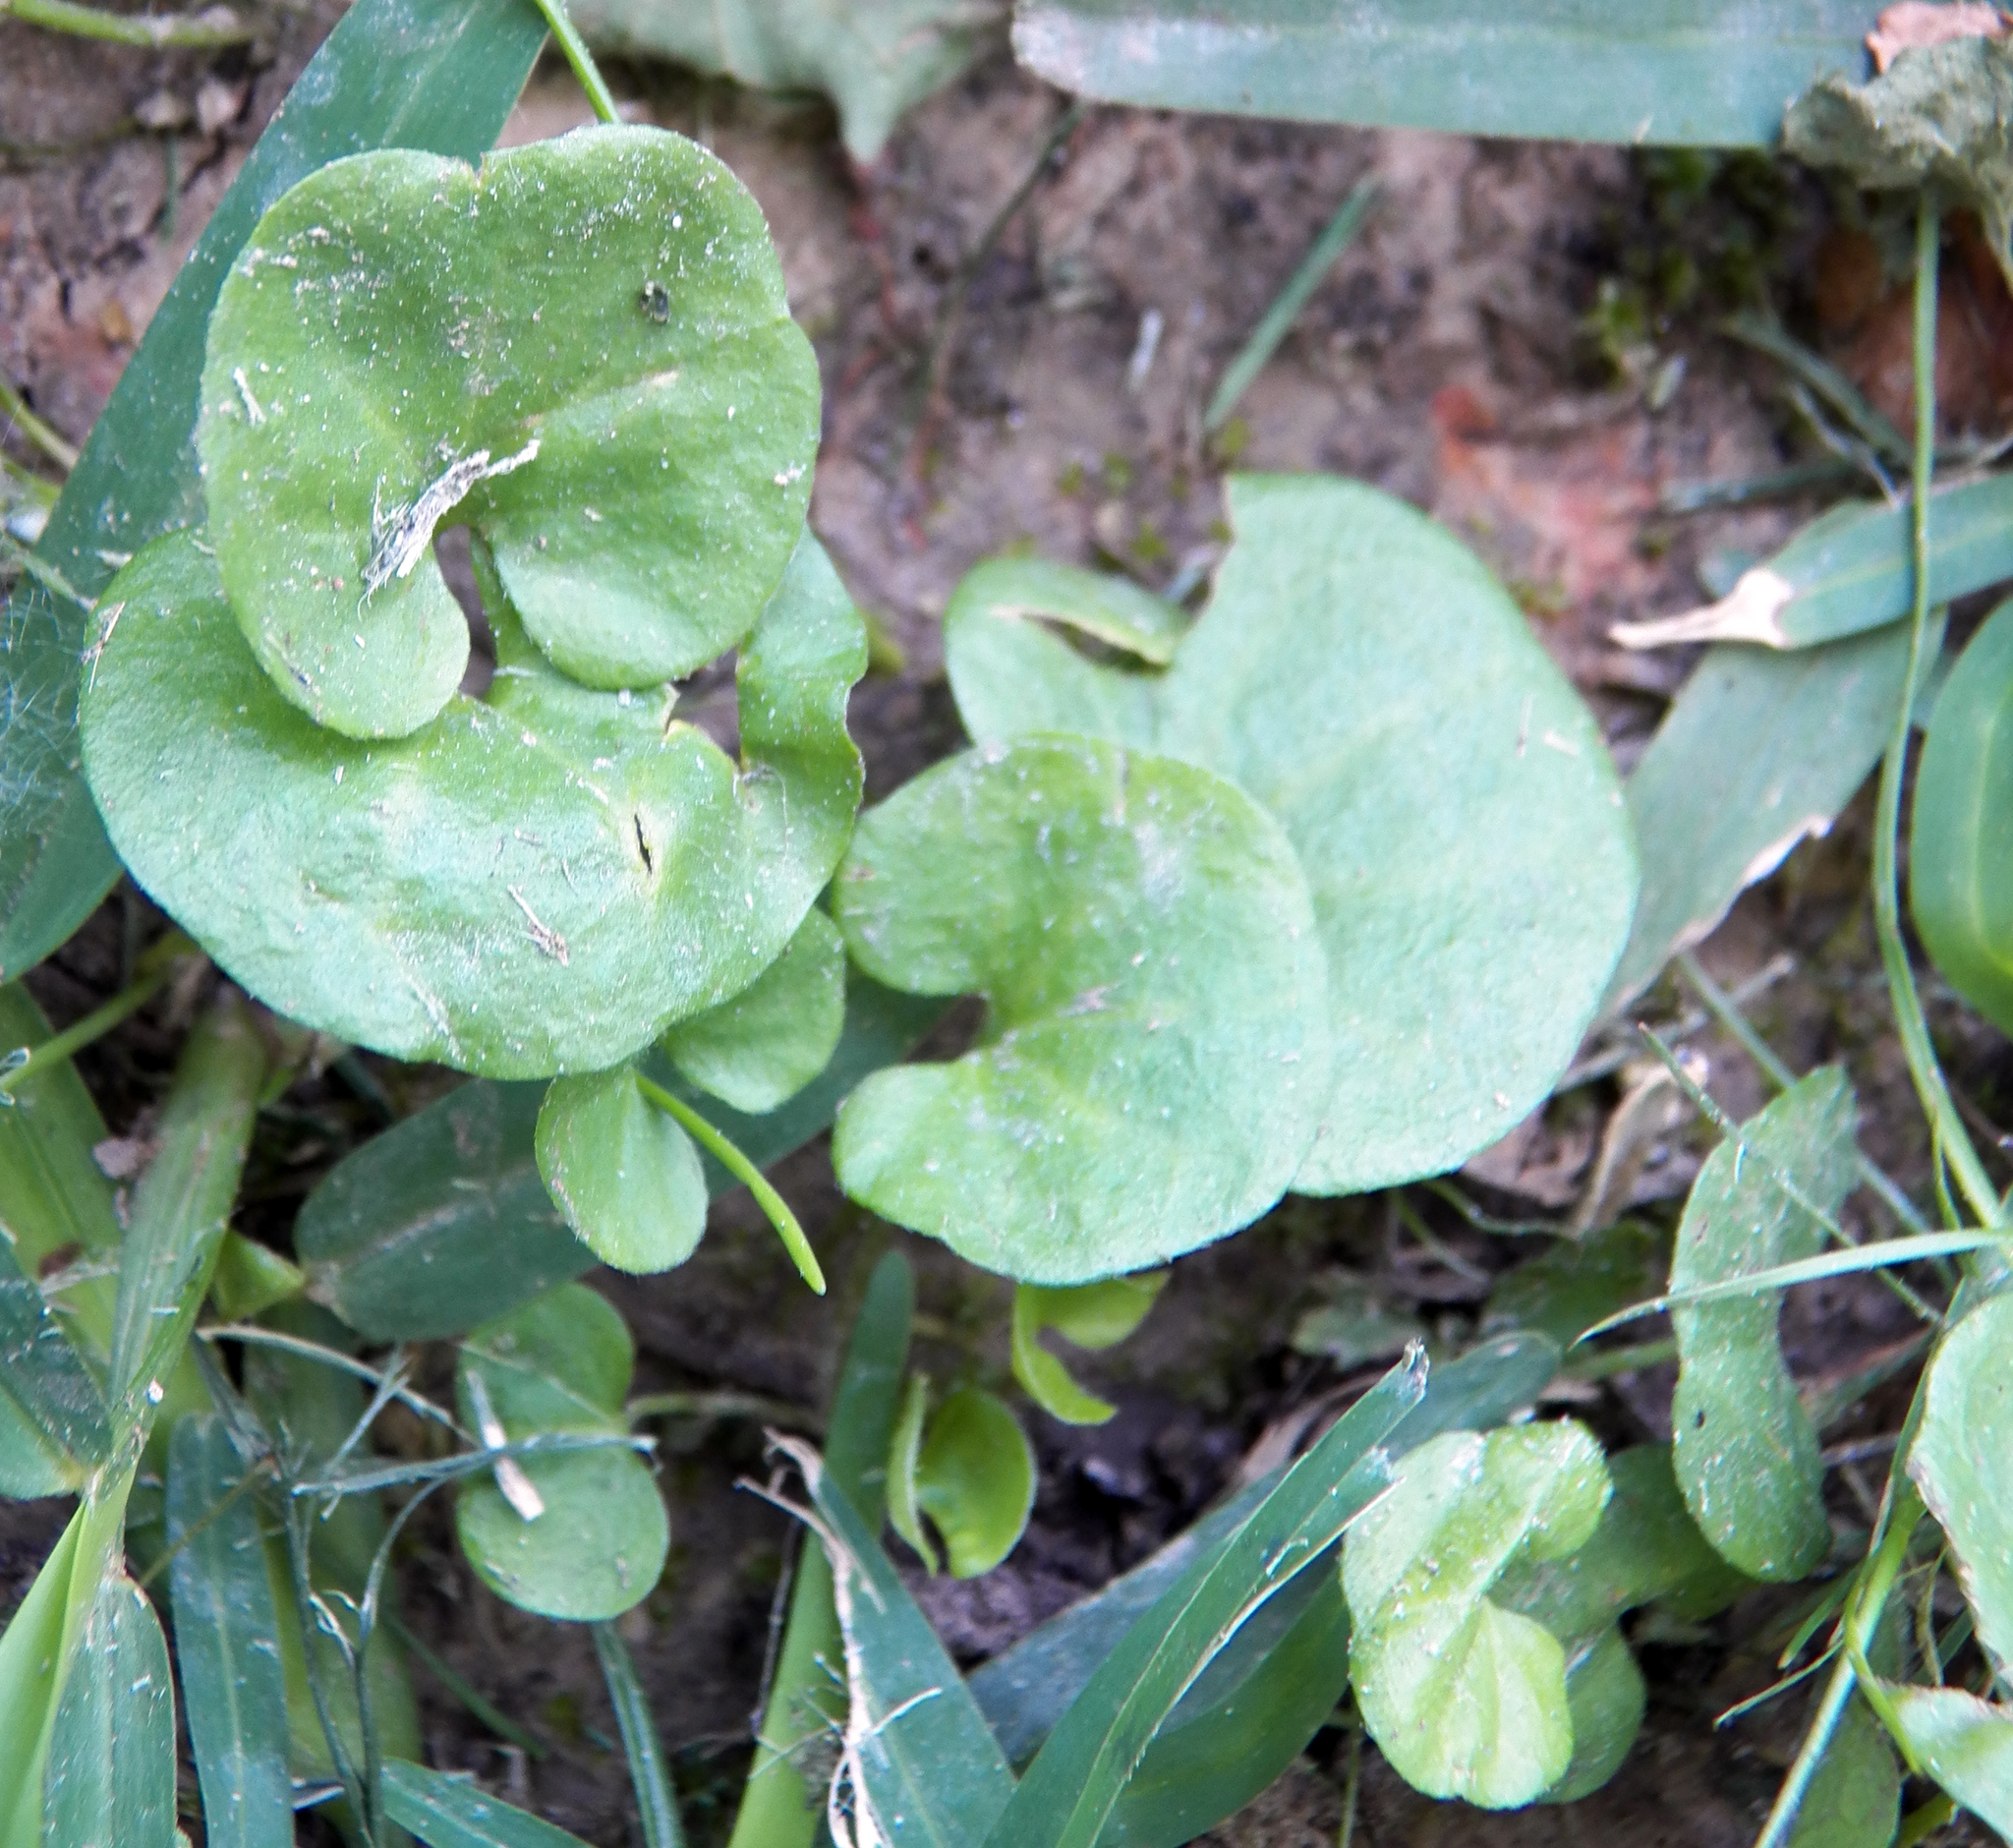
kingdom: Plantae
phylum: Tracheophyta
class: Magnoliopsida
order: Solanales
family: Convolvulaceae
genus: Dichondra
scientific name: Dichondra carolinensis
